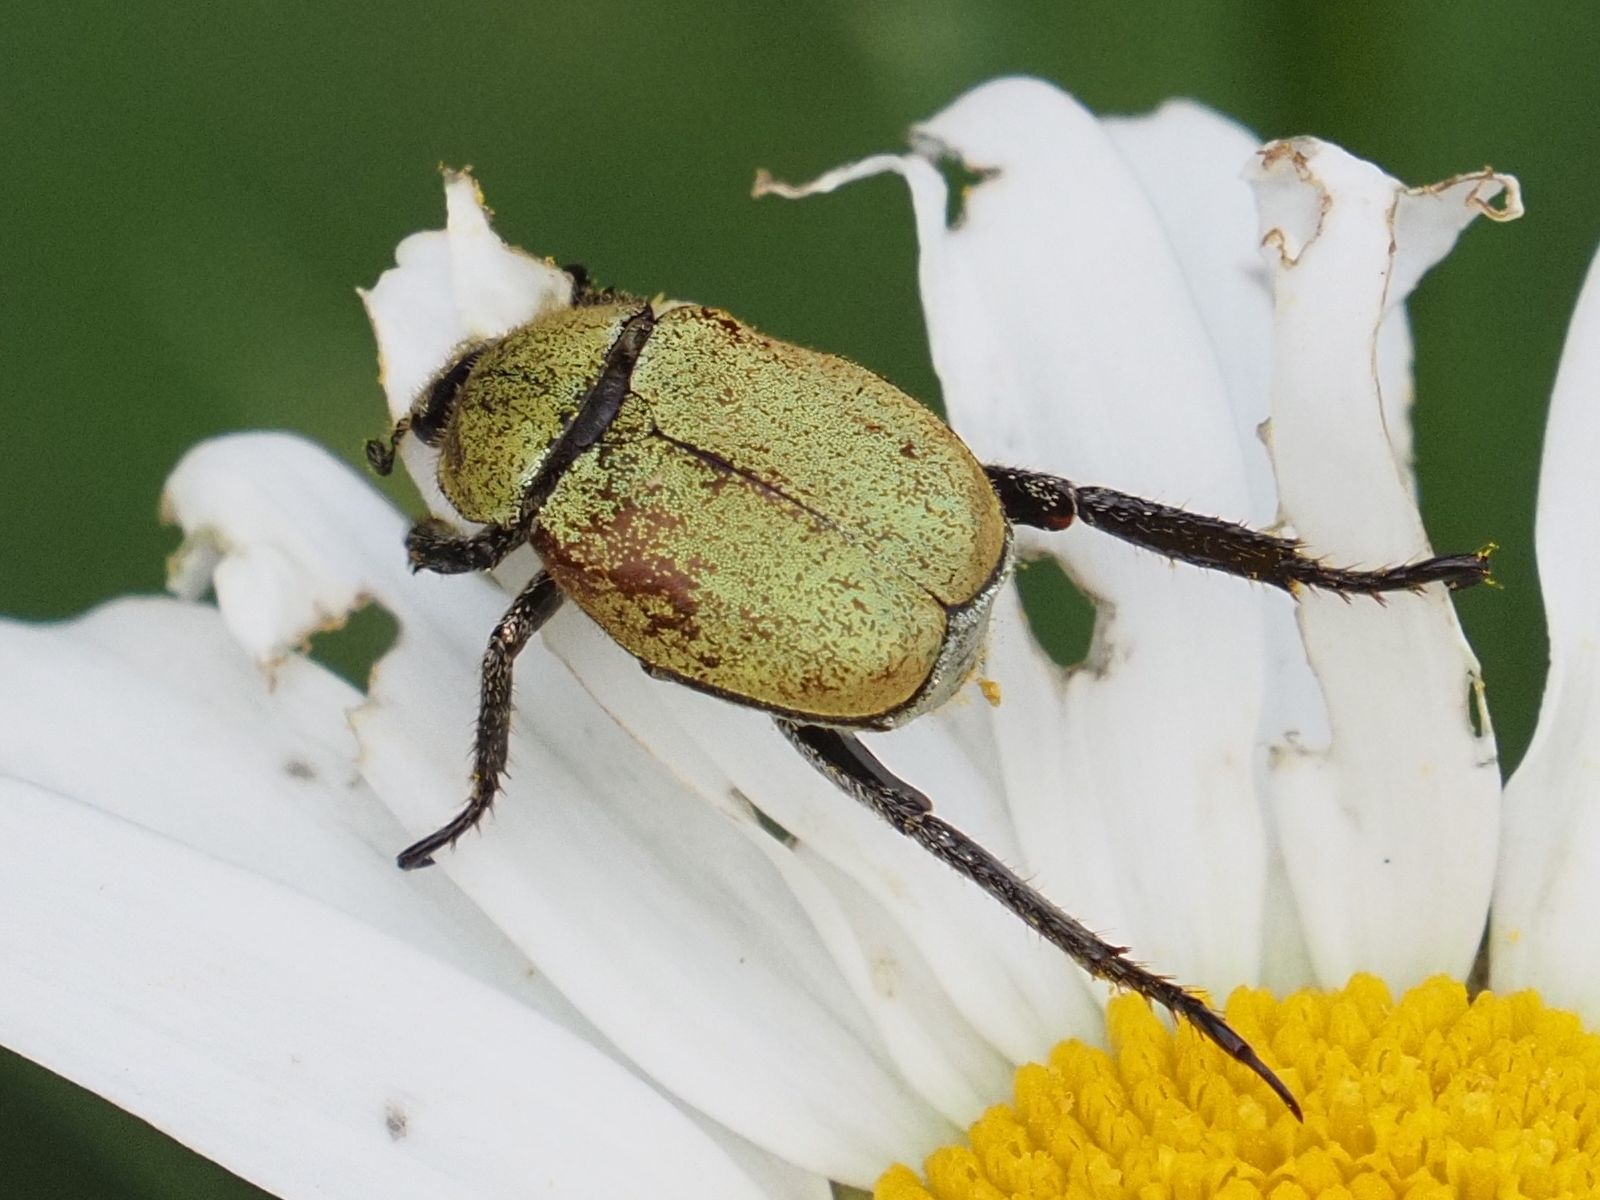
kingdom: Animalia
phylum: Arthropoda
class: Insecta
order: Coleoptera
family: Scarabaeidae
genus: Hoplia
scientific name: Hoplia argentea
